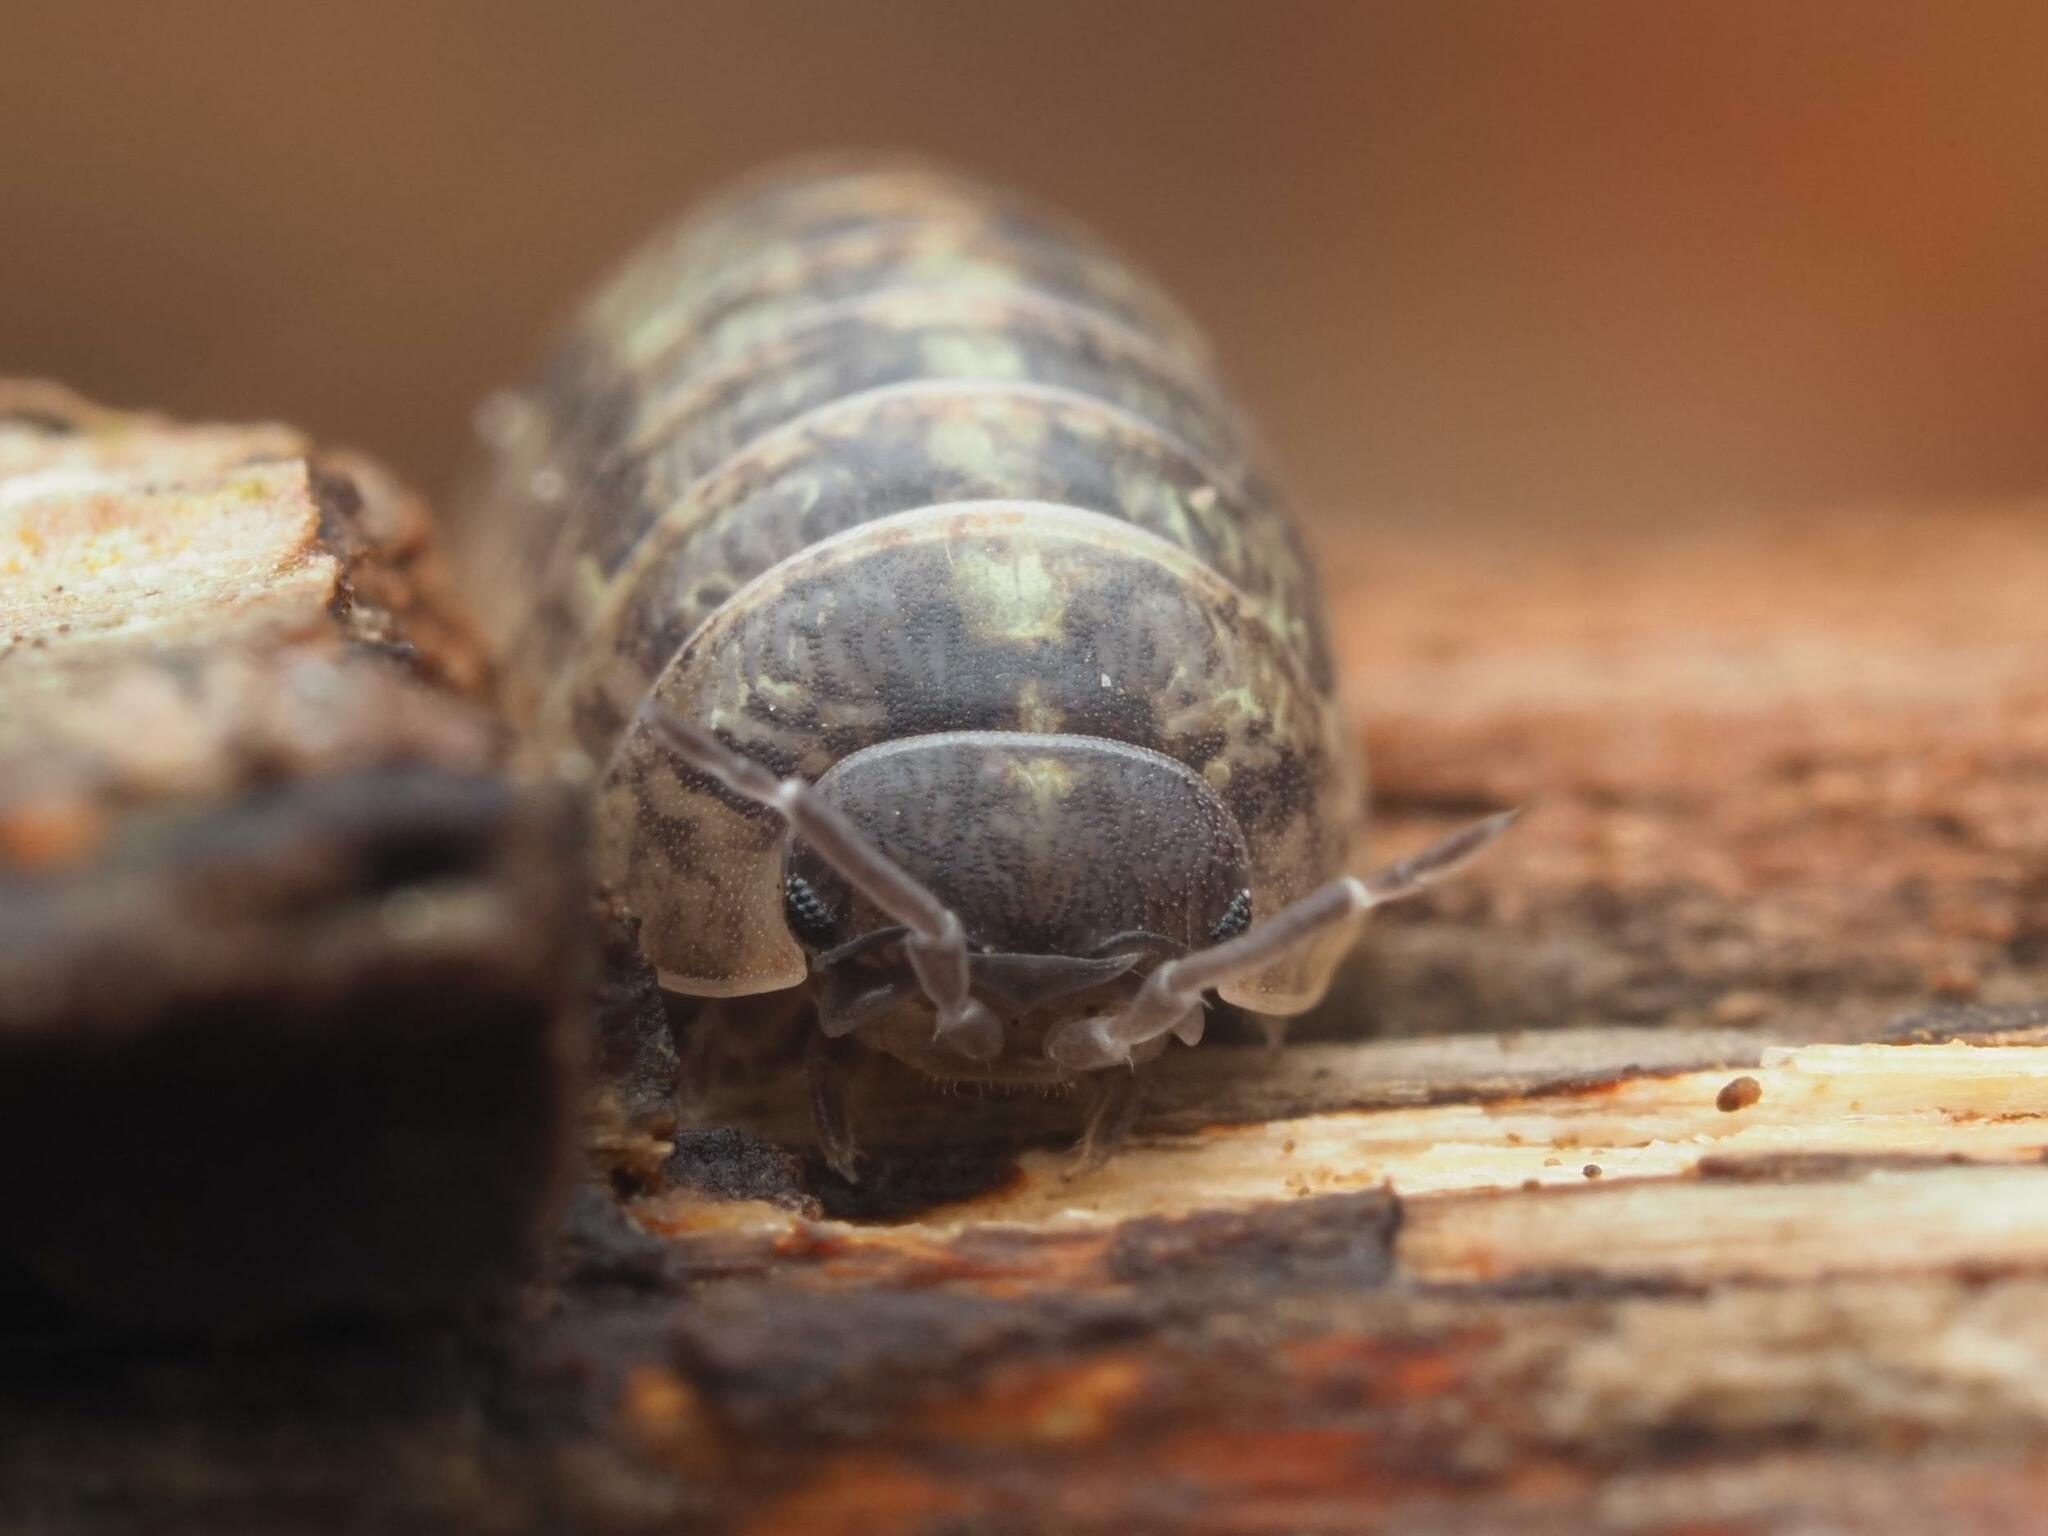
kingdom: Animalia
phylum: Arthropoda
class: Malacostraca
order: Isopoda
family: Armadillidiidae
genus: Armadillidium
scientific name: Armadillidium vulgare
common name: Common pill woodlouse
